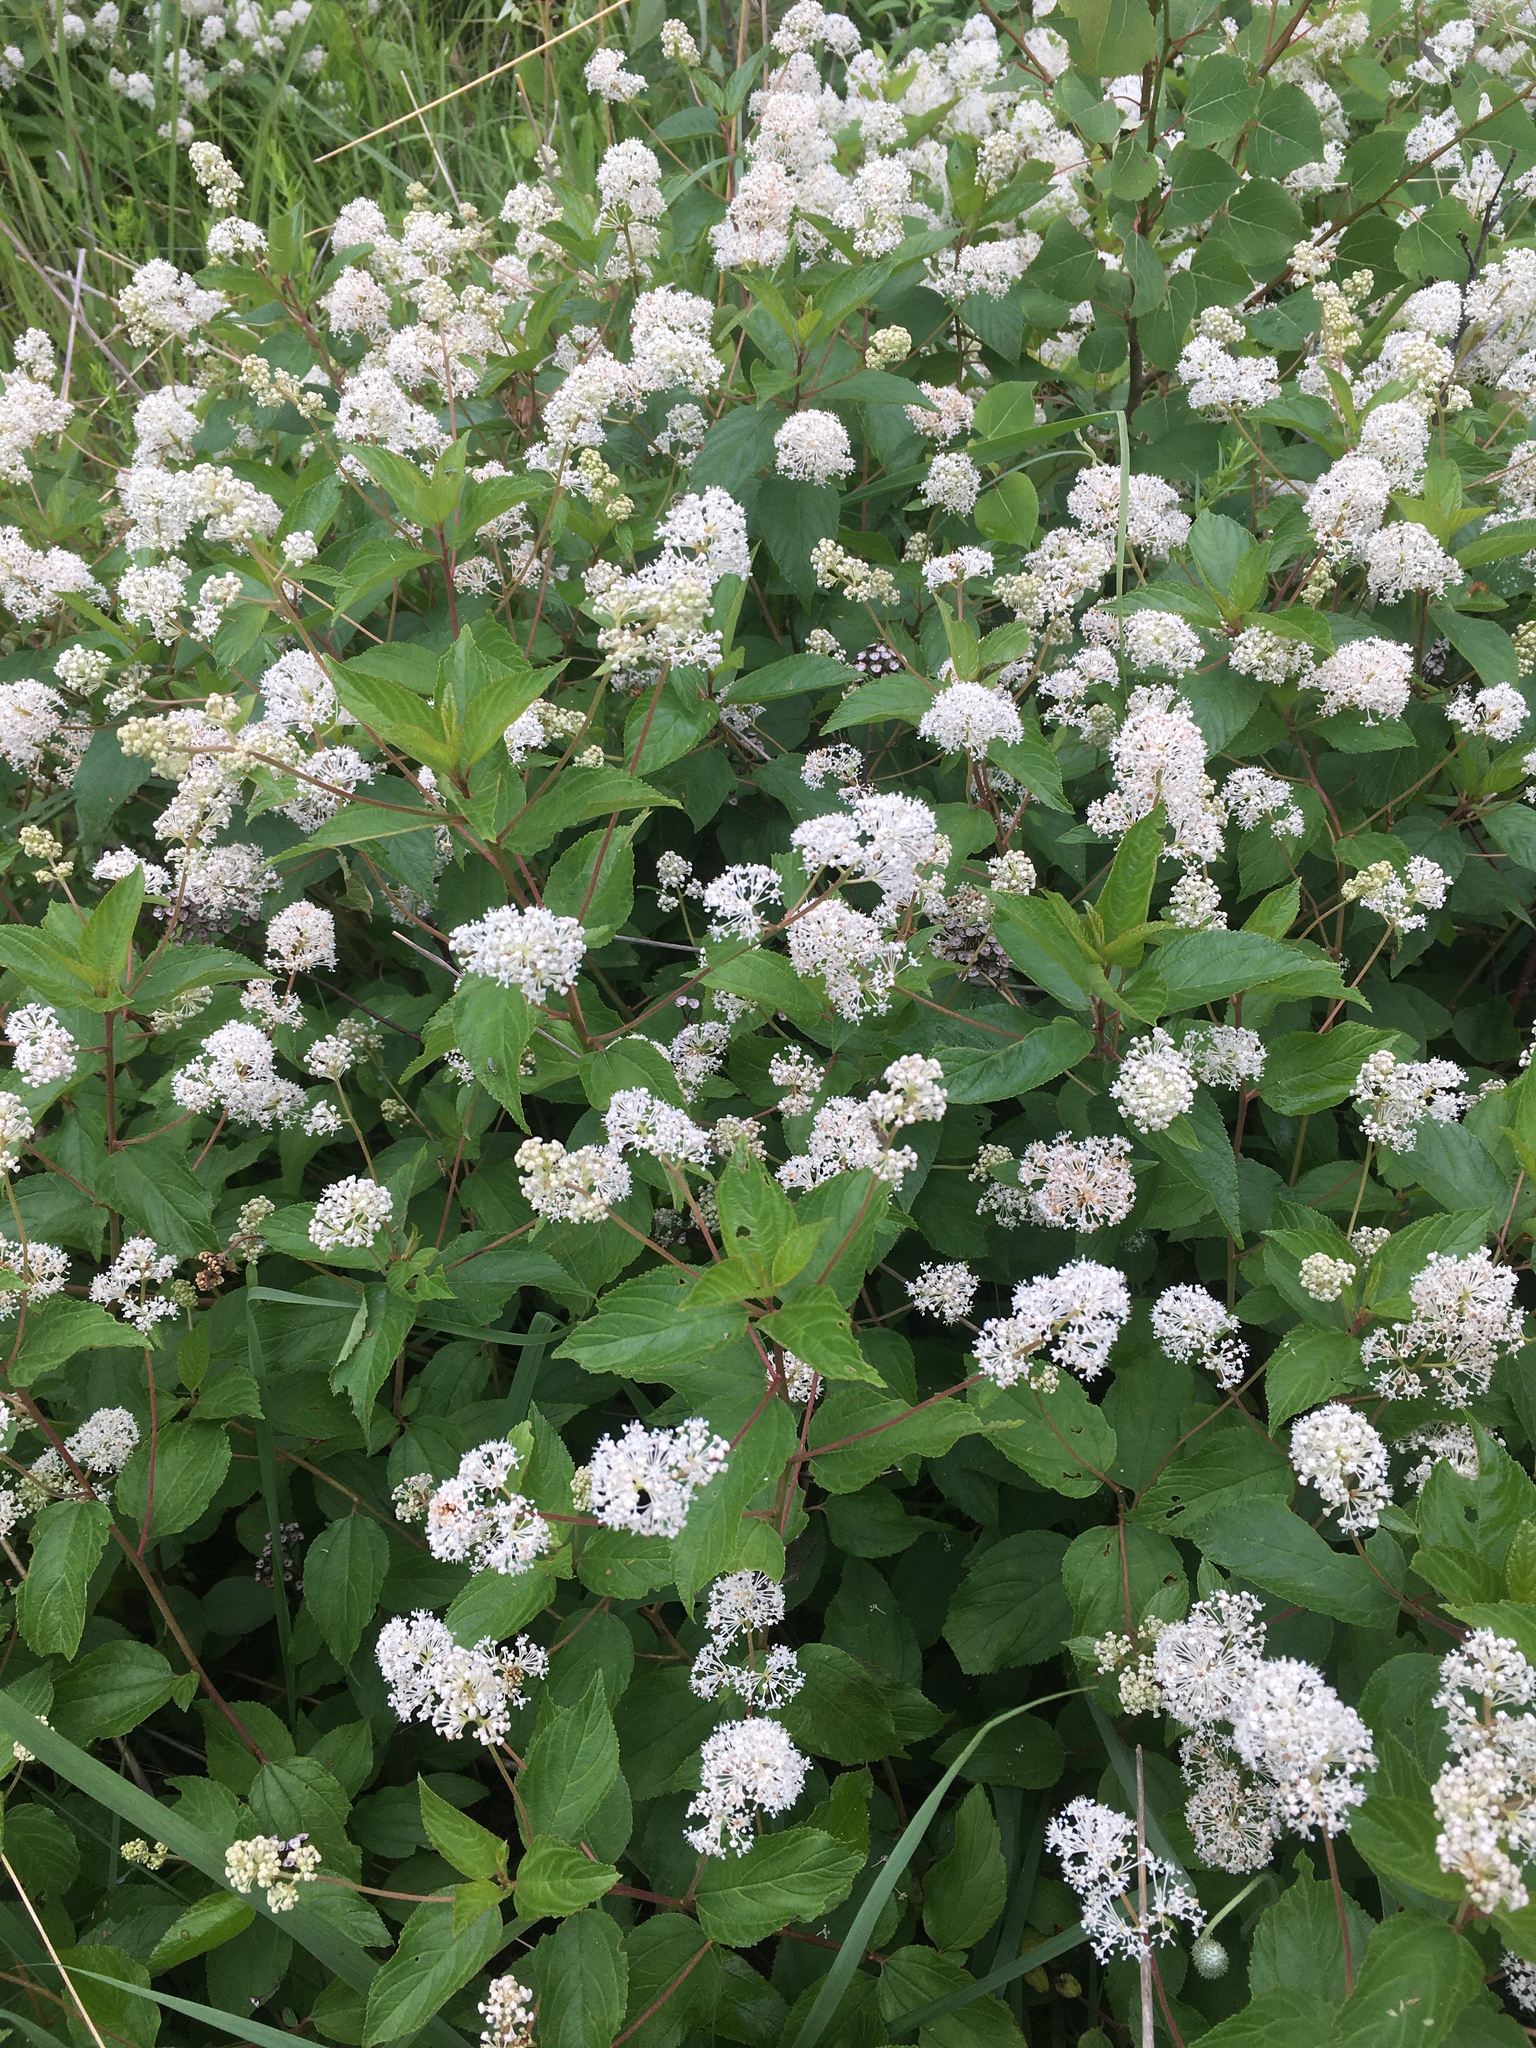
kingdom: Plantae
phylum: Tracheophyta
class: Magnoliopsida
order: Rosales
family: Rhamnaceae
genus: Ceanothus
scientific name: Ceanothus americanus
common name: Redroot
